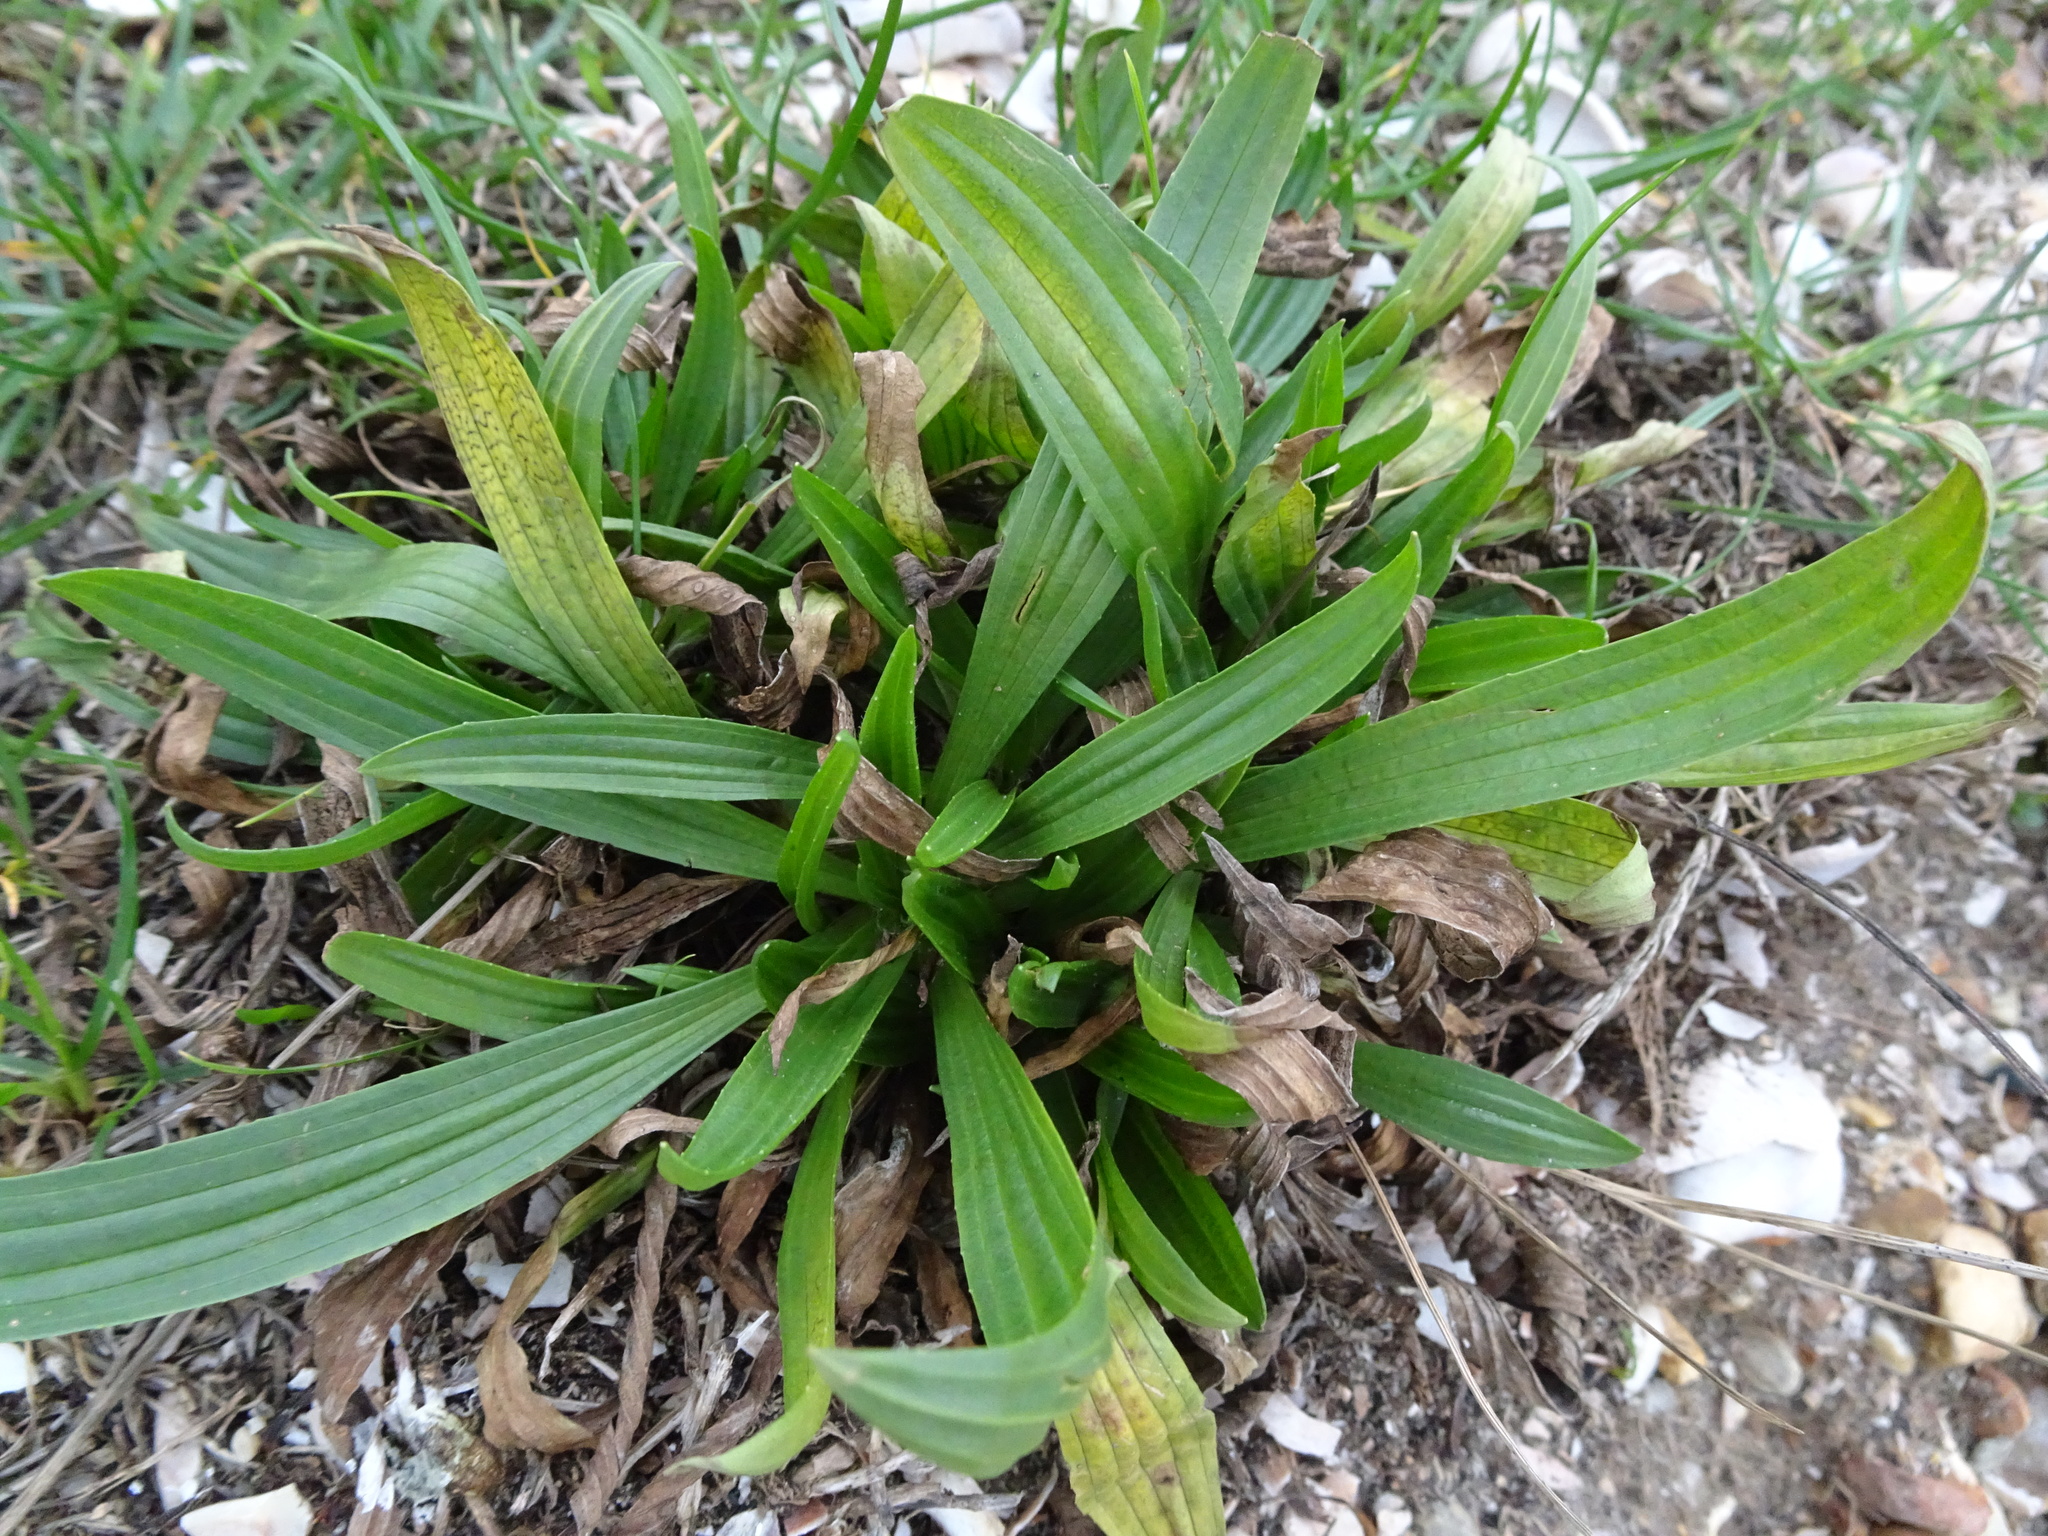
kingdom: Plantae
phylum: Tracheophyta
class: Magnoliopsida
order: Lamiales
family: Plantaginaceae
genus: Plantago
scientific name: Plantago lanceolata
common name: Ribwort plantain
